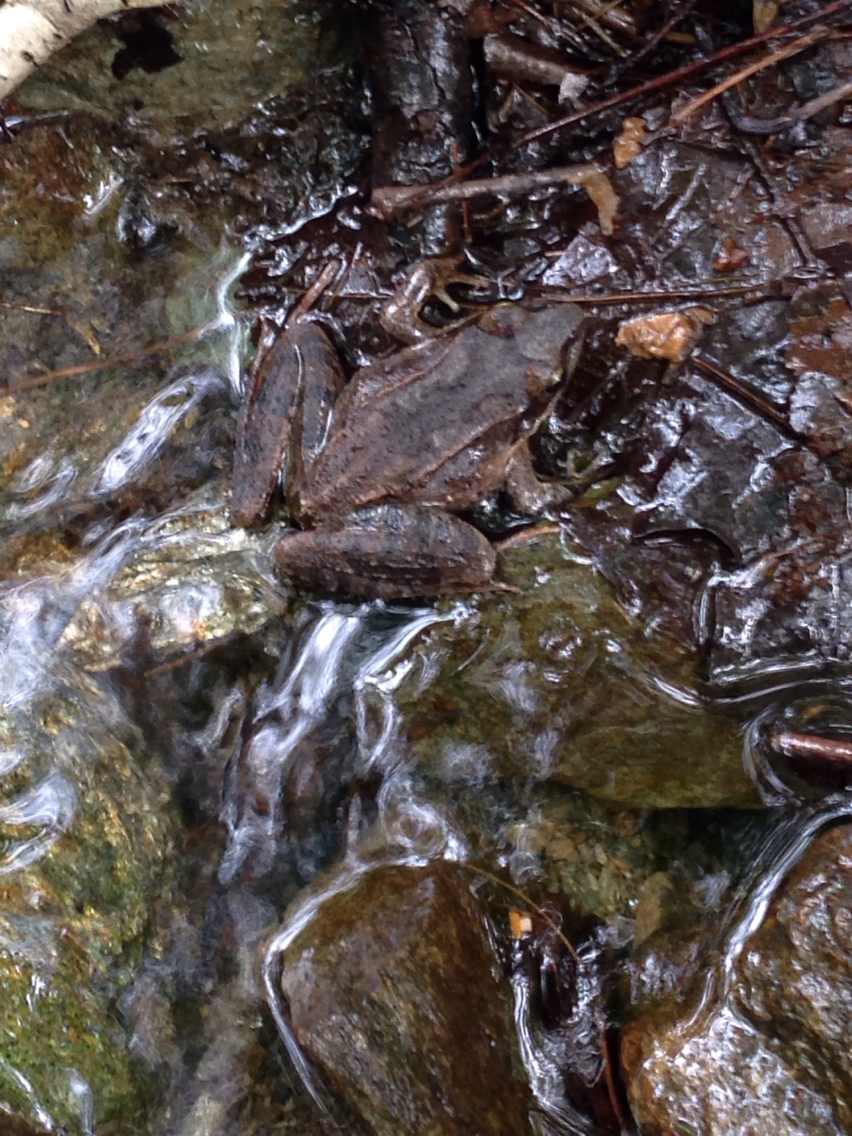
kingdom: Animalia
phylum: Chordata
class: Amphibia
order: Anura
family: Ranidae
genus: Lithobates
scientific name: Lithobates sylvaticus
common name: Wood frog
